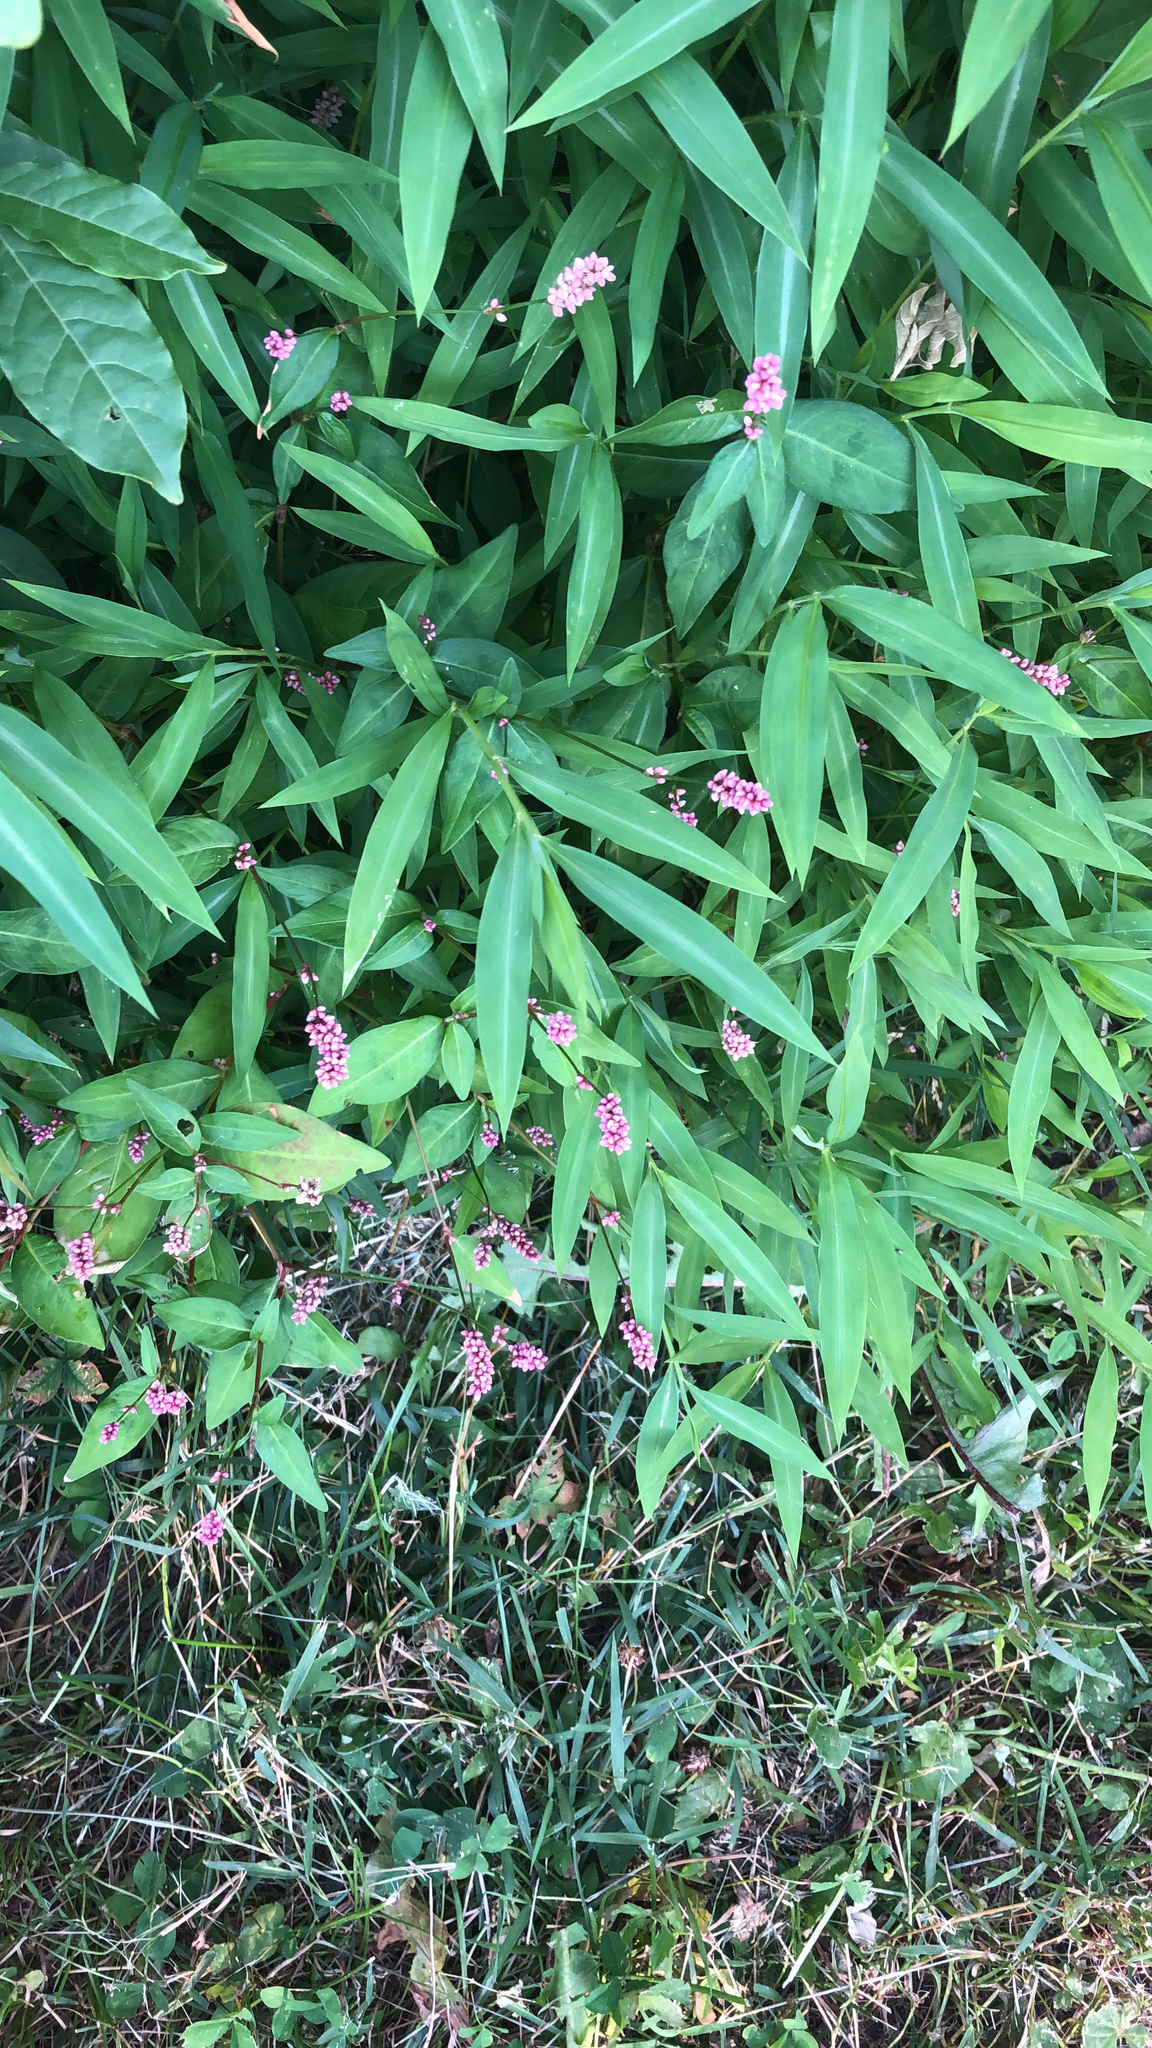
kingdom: Plantae
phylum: Tracheophyta
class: Magnoliopsida
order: Caryophyllales
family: Polygonaceae
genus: Persicaria
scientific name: Persicaria longiseta
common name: Bristly lady's-thumb
